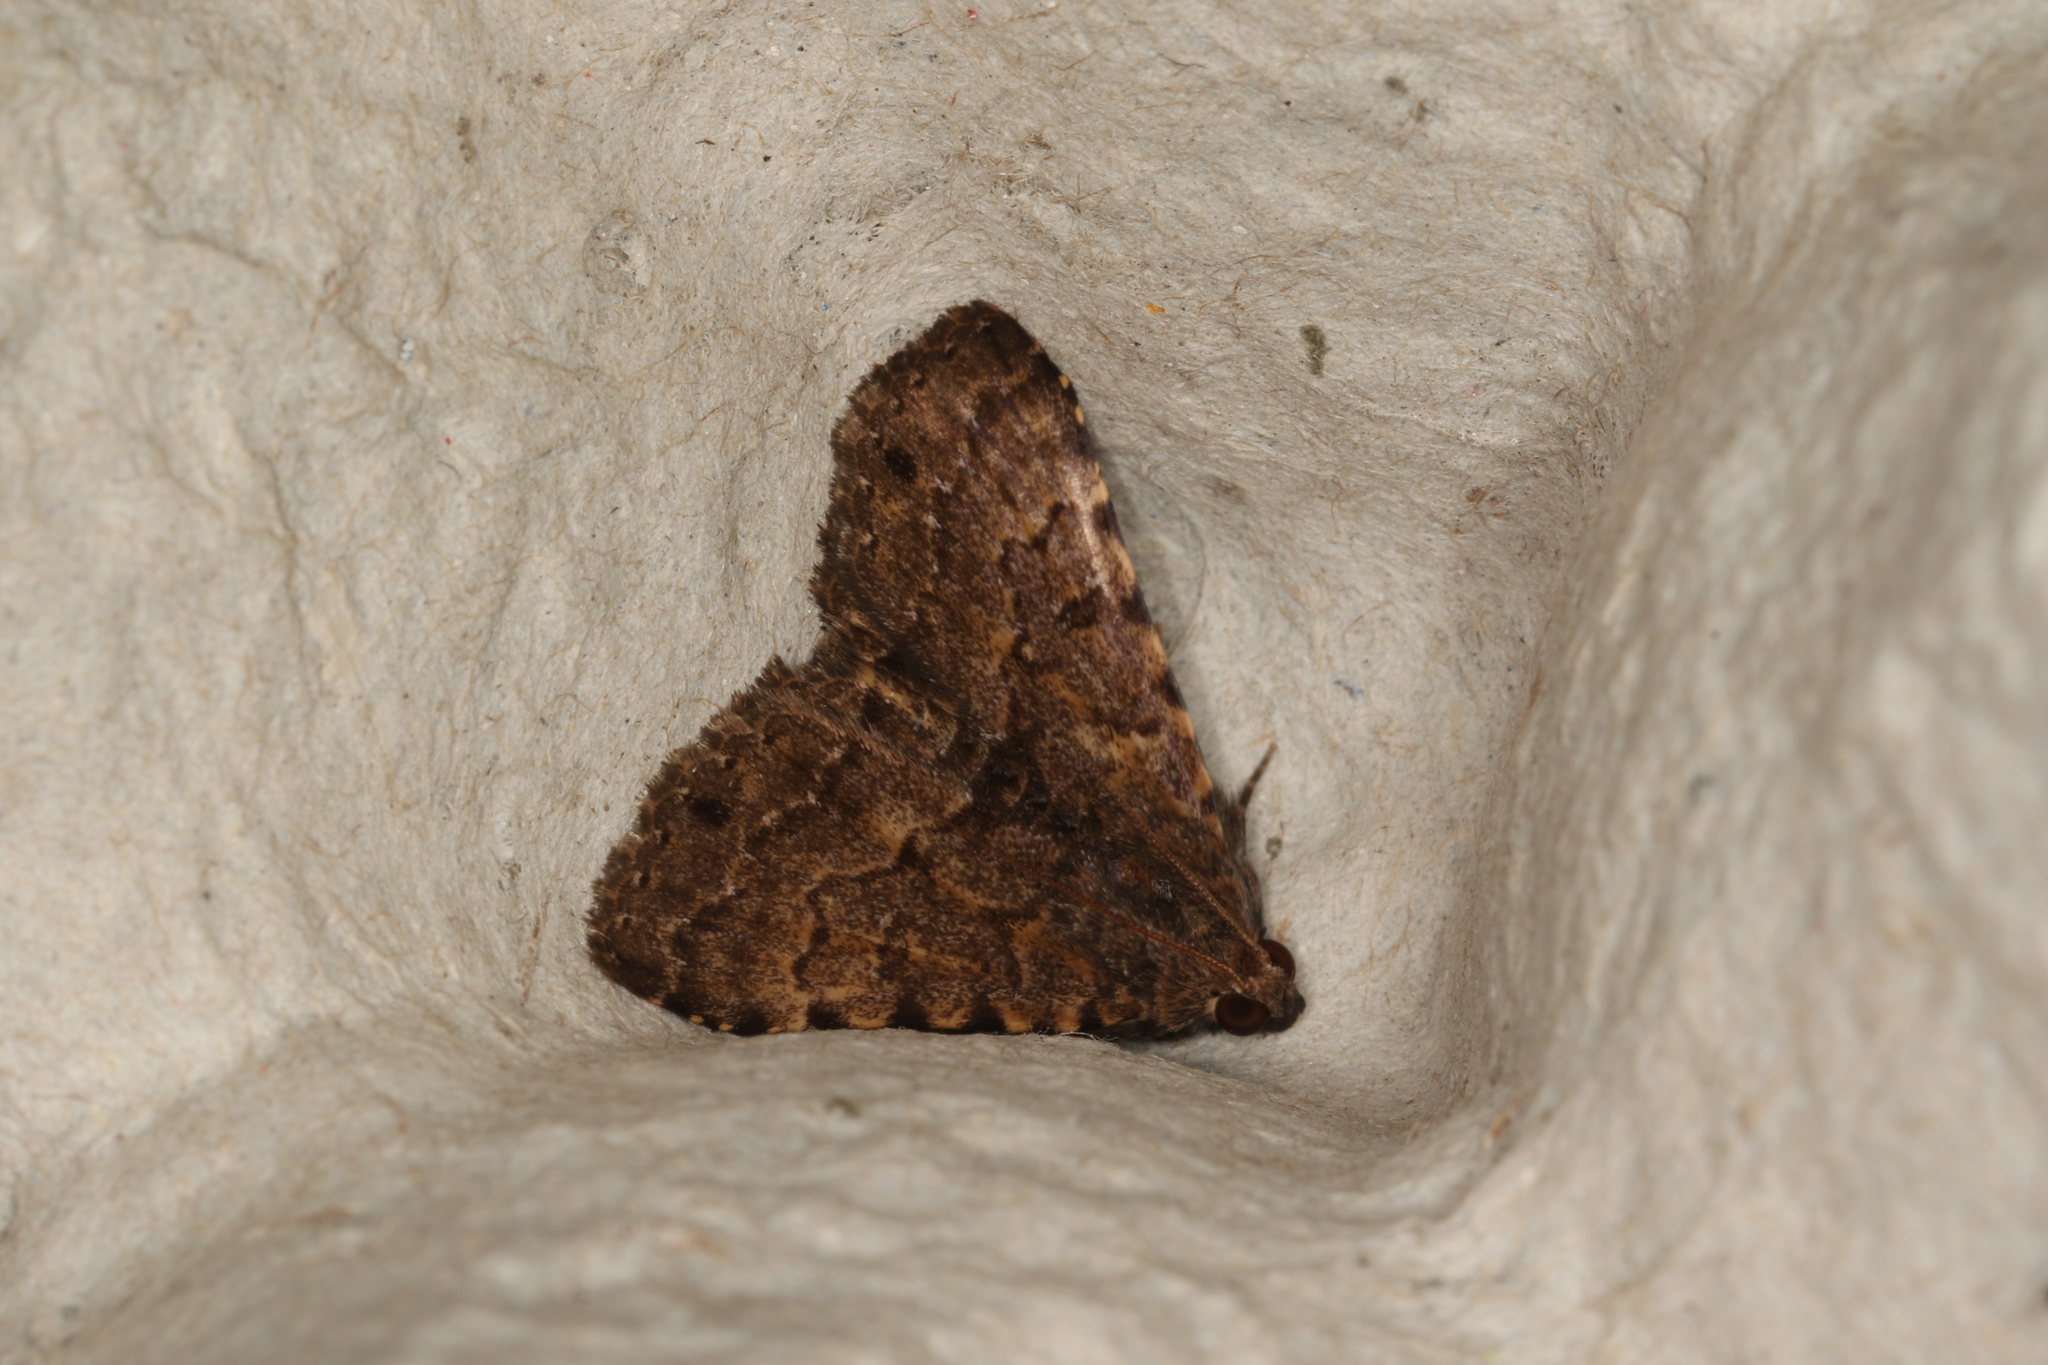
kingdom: Animalia
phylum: Arthropoda
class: Insecta
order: Lepidoptera
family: Erebidae
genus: Diatenes
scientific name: Diatenes aglossoides
